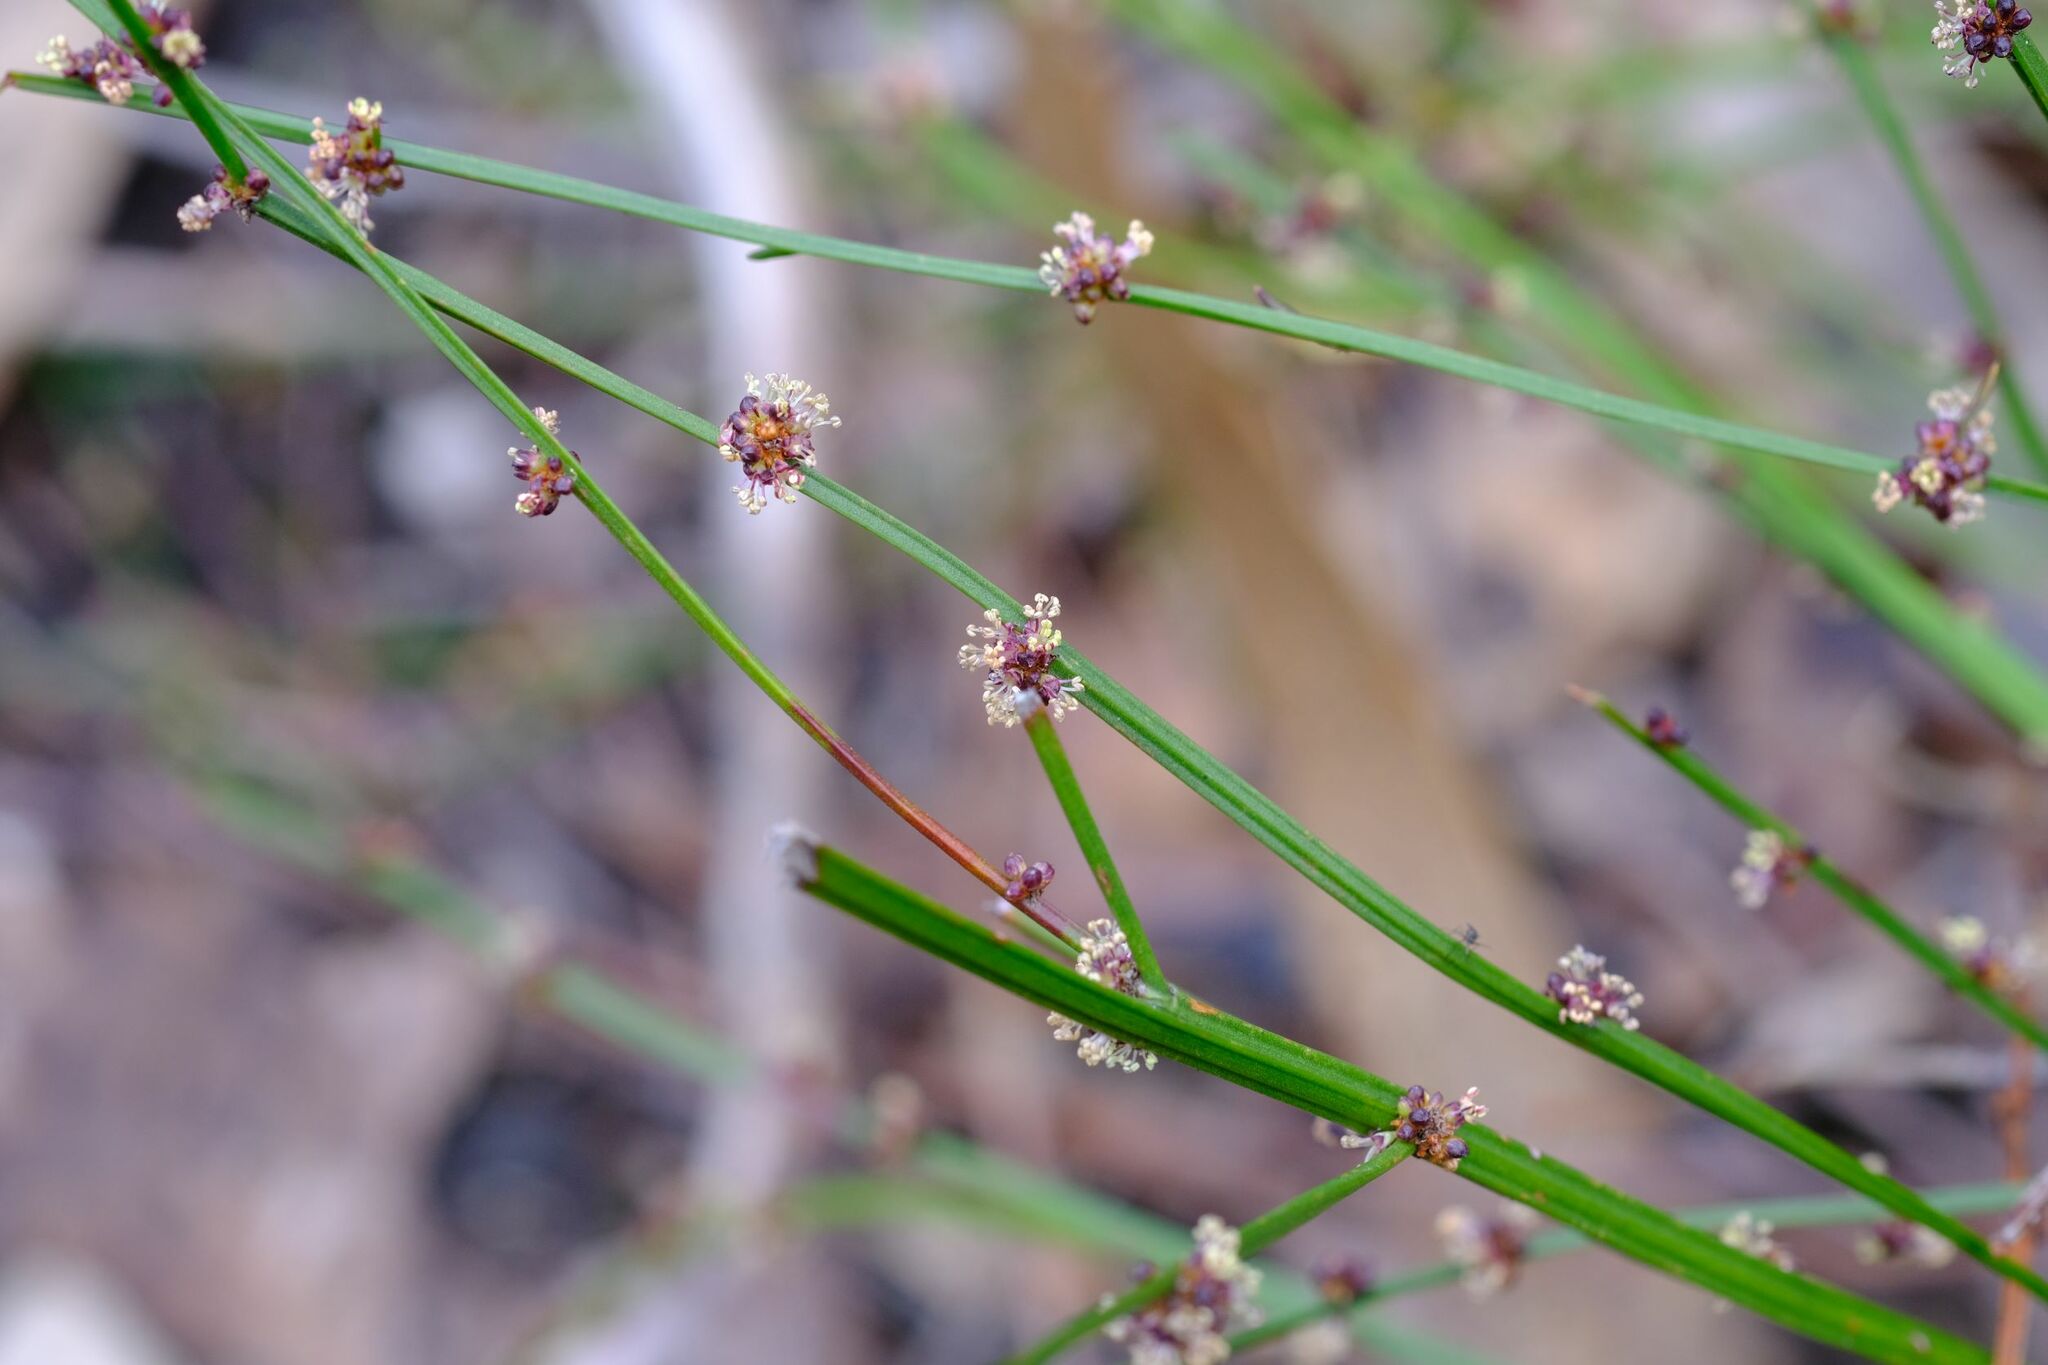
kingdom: Plantae
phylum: Tracheophyta
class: Magnoliopsida
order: Malpighiales
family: Euphorbiaceae
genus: Amperea
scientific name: Amperea xiphoclada
